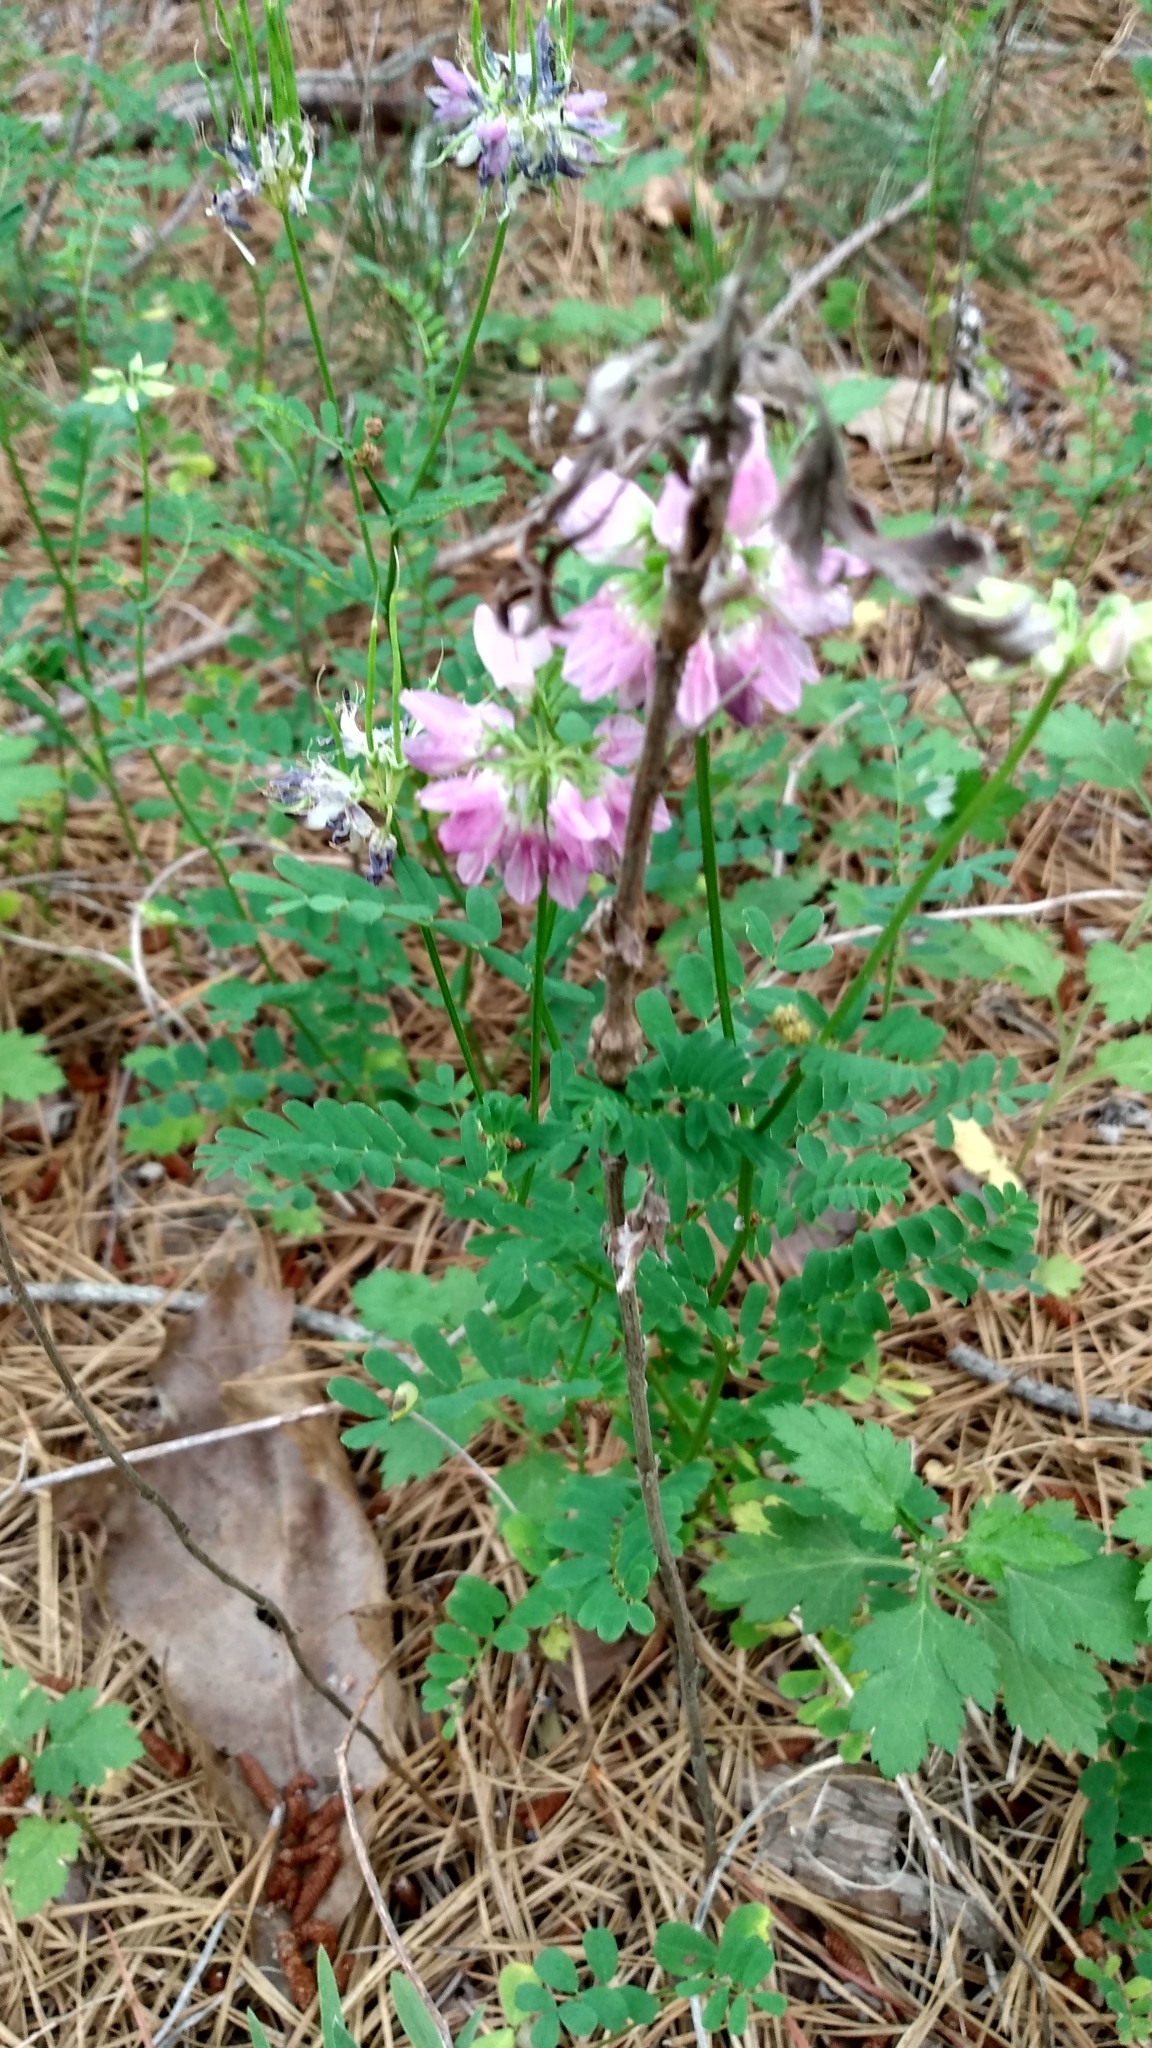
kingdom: Plantae
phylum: Tracheophyta
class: Magnoliopsida
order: Fabales
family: Fabaceae
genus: Coronilla
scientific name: Coronilla varia
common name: Crownvetch
